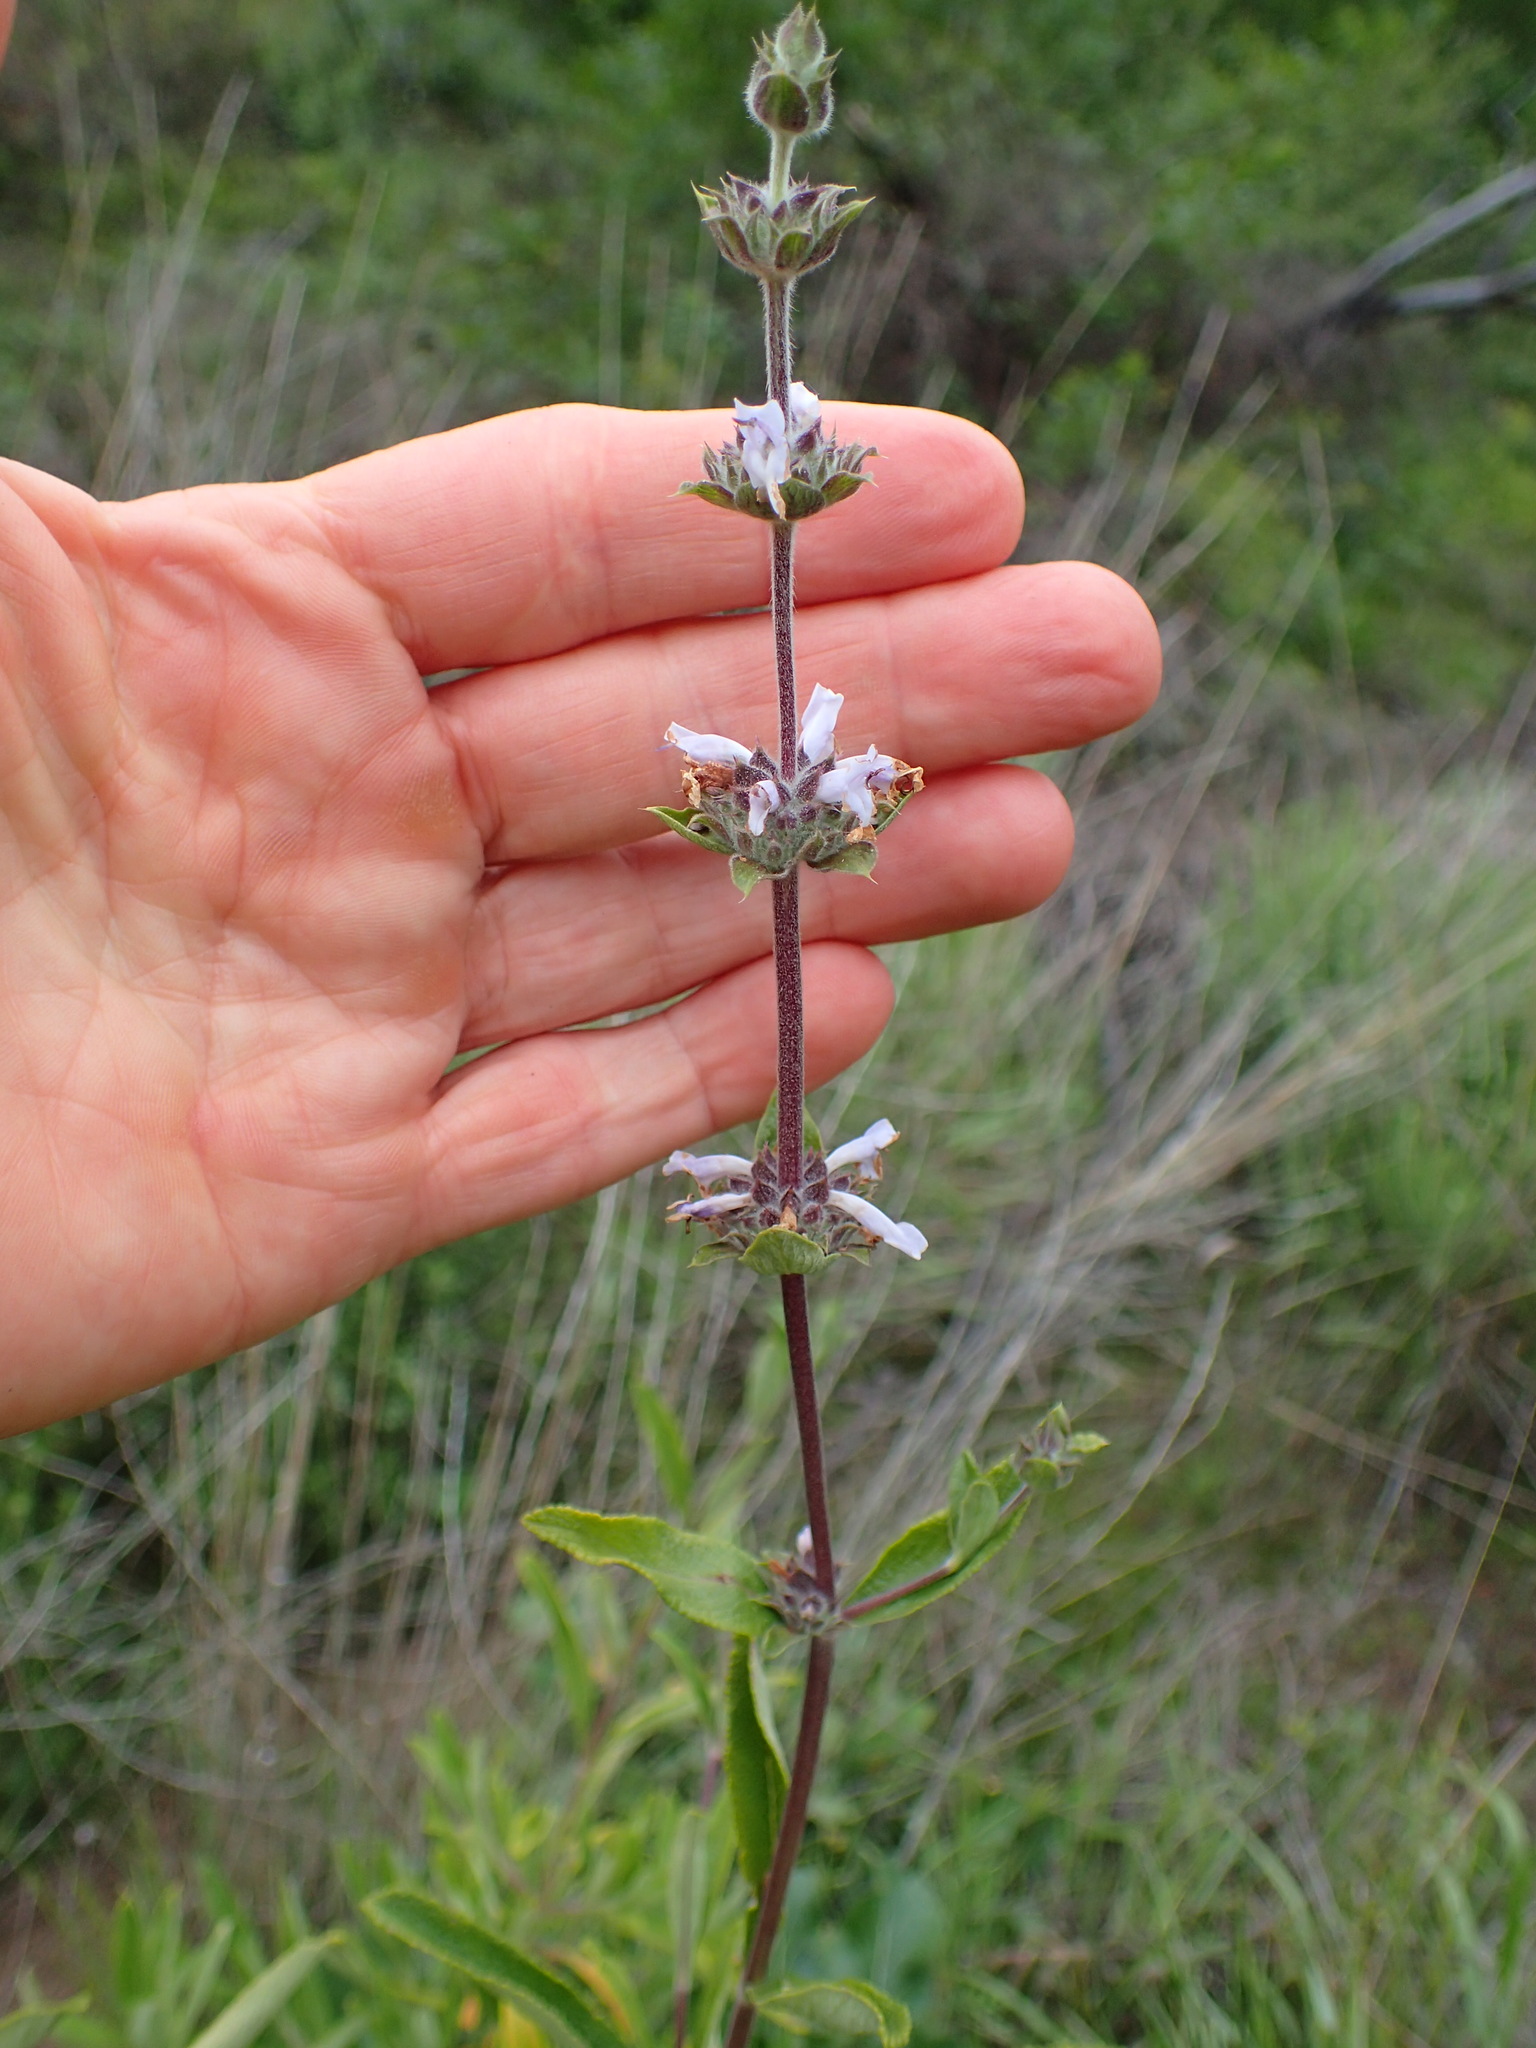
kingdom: Plantae
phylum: Tracheophyta
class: Magnoliopsida
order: Lamiales
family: Lamiaceae
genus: Salvia
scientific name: Salvia mellifera
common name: Black sage
